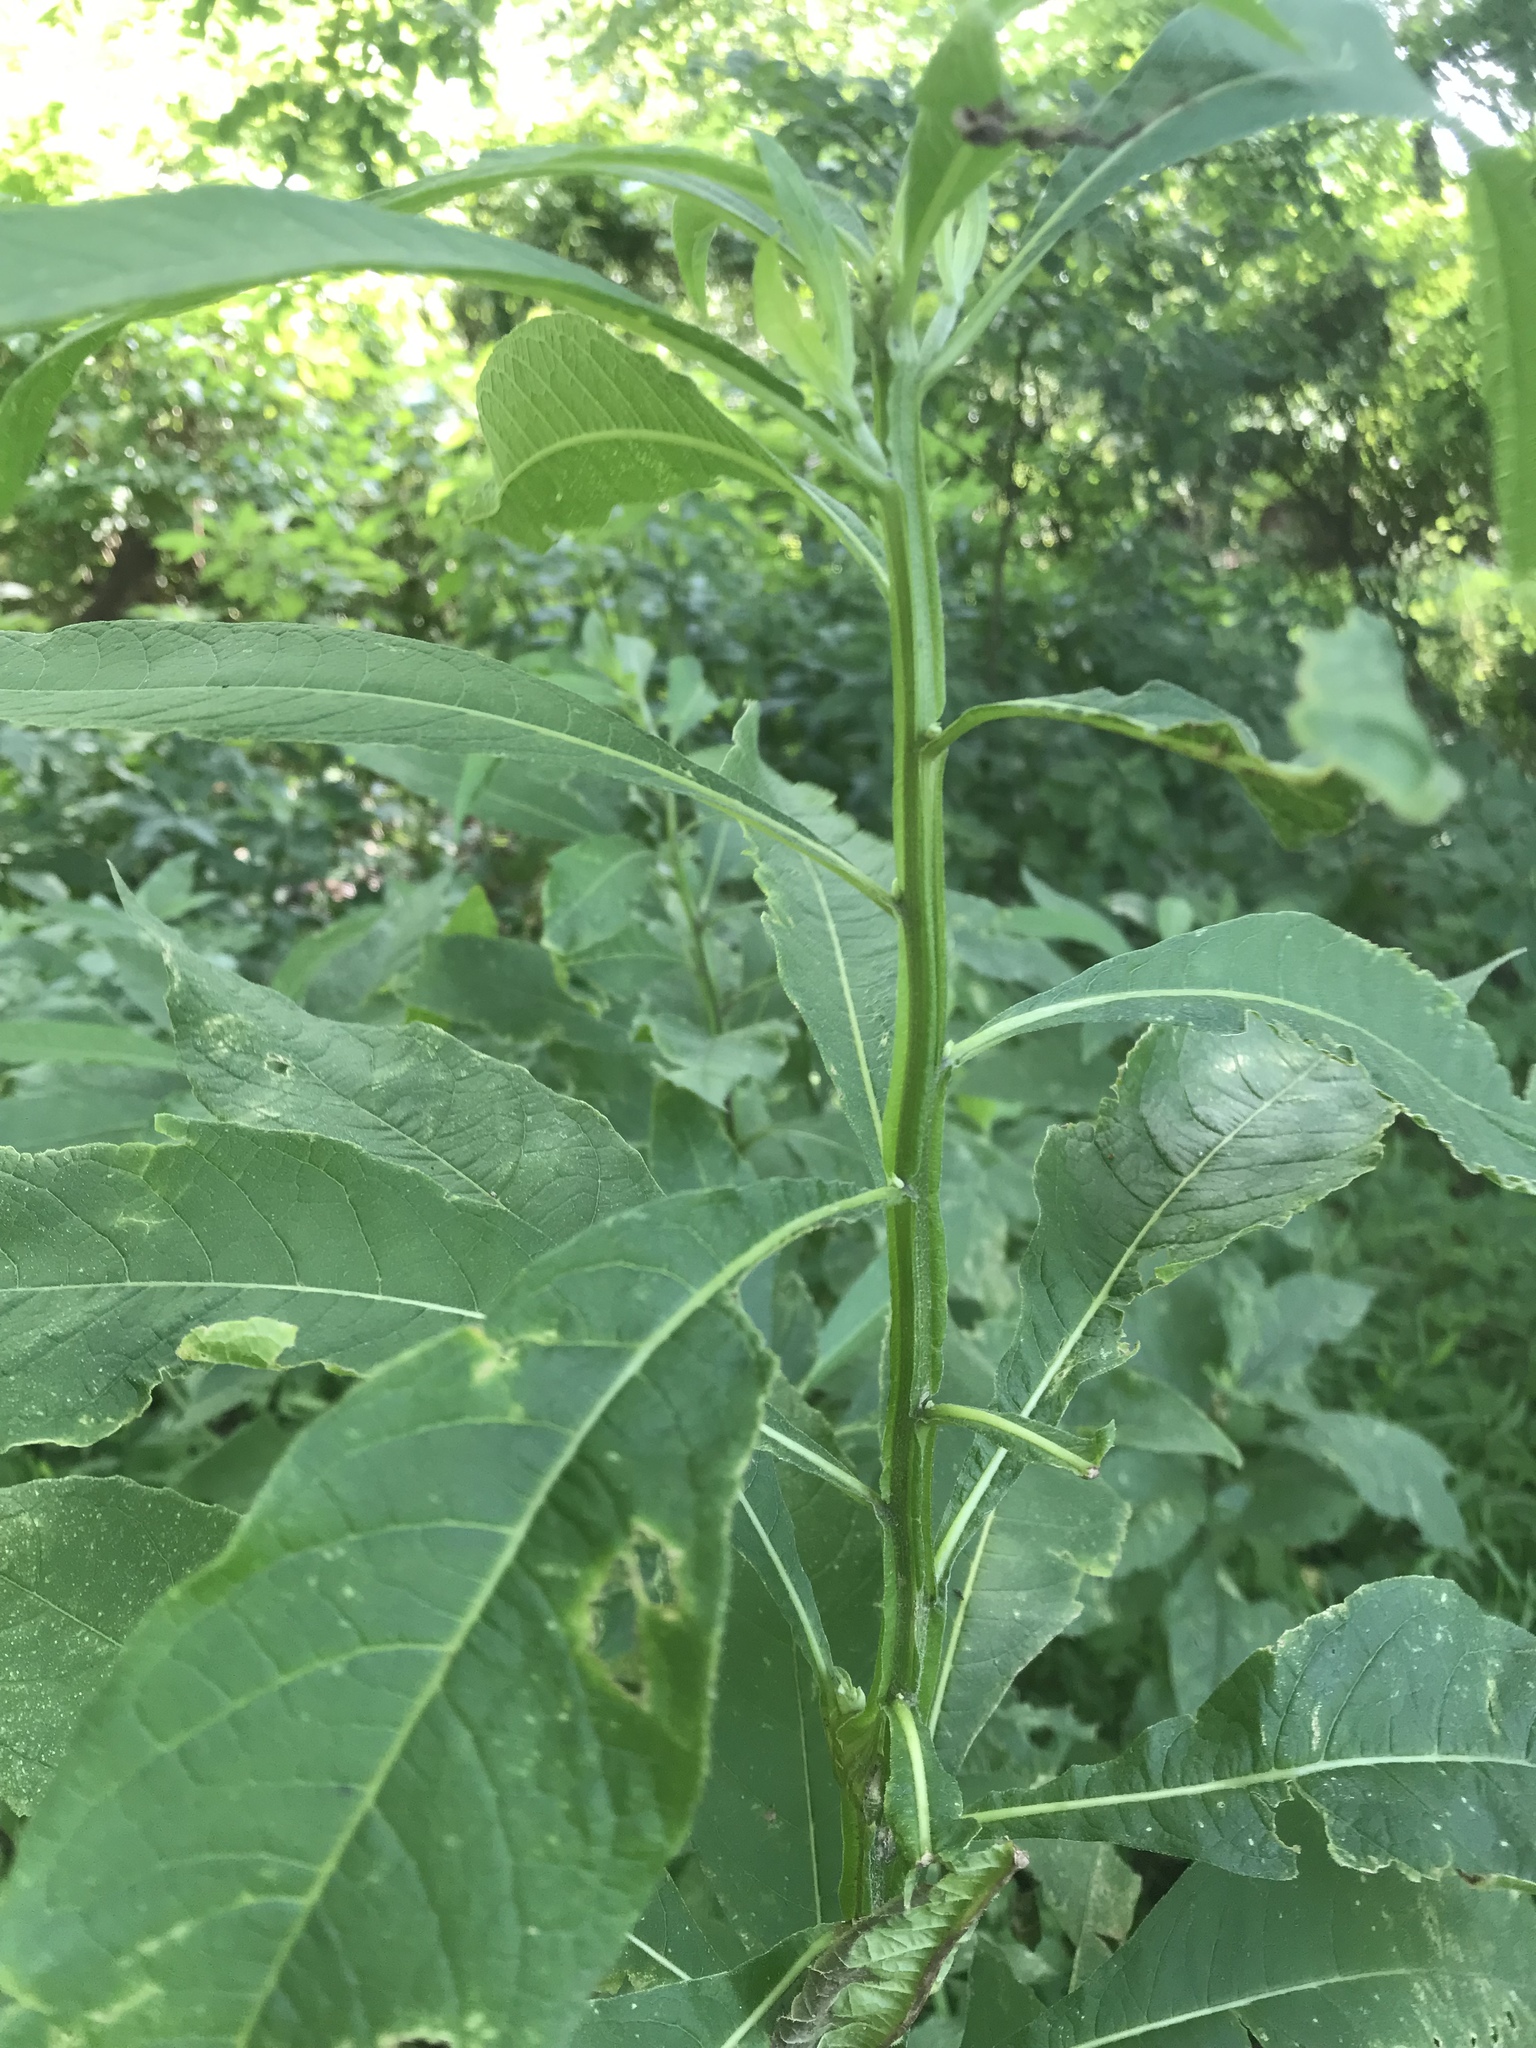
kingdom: Plantae
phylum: Tracheophyta
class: Magnoliopsida
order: Asterales
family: Asteraceae
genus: Verbesina
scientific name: Verbesina alternifolia
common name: Wingstem
